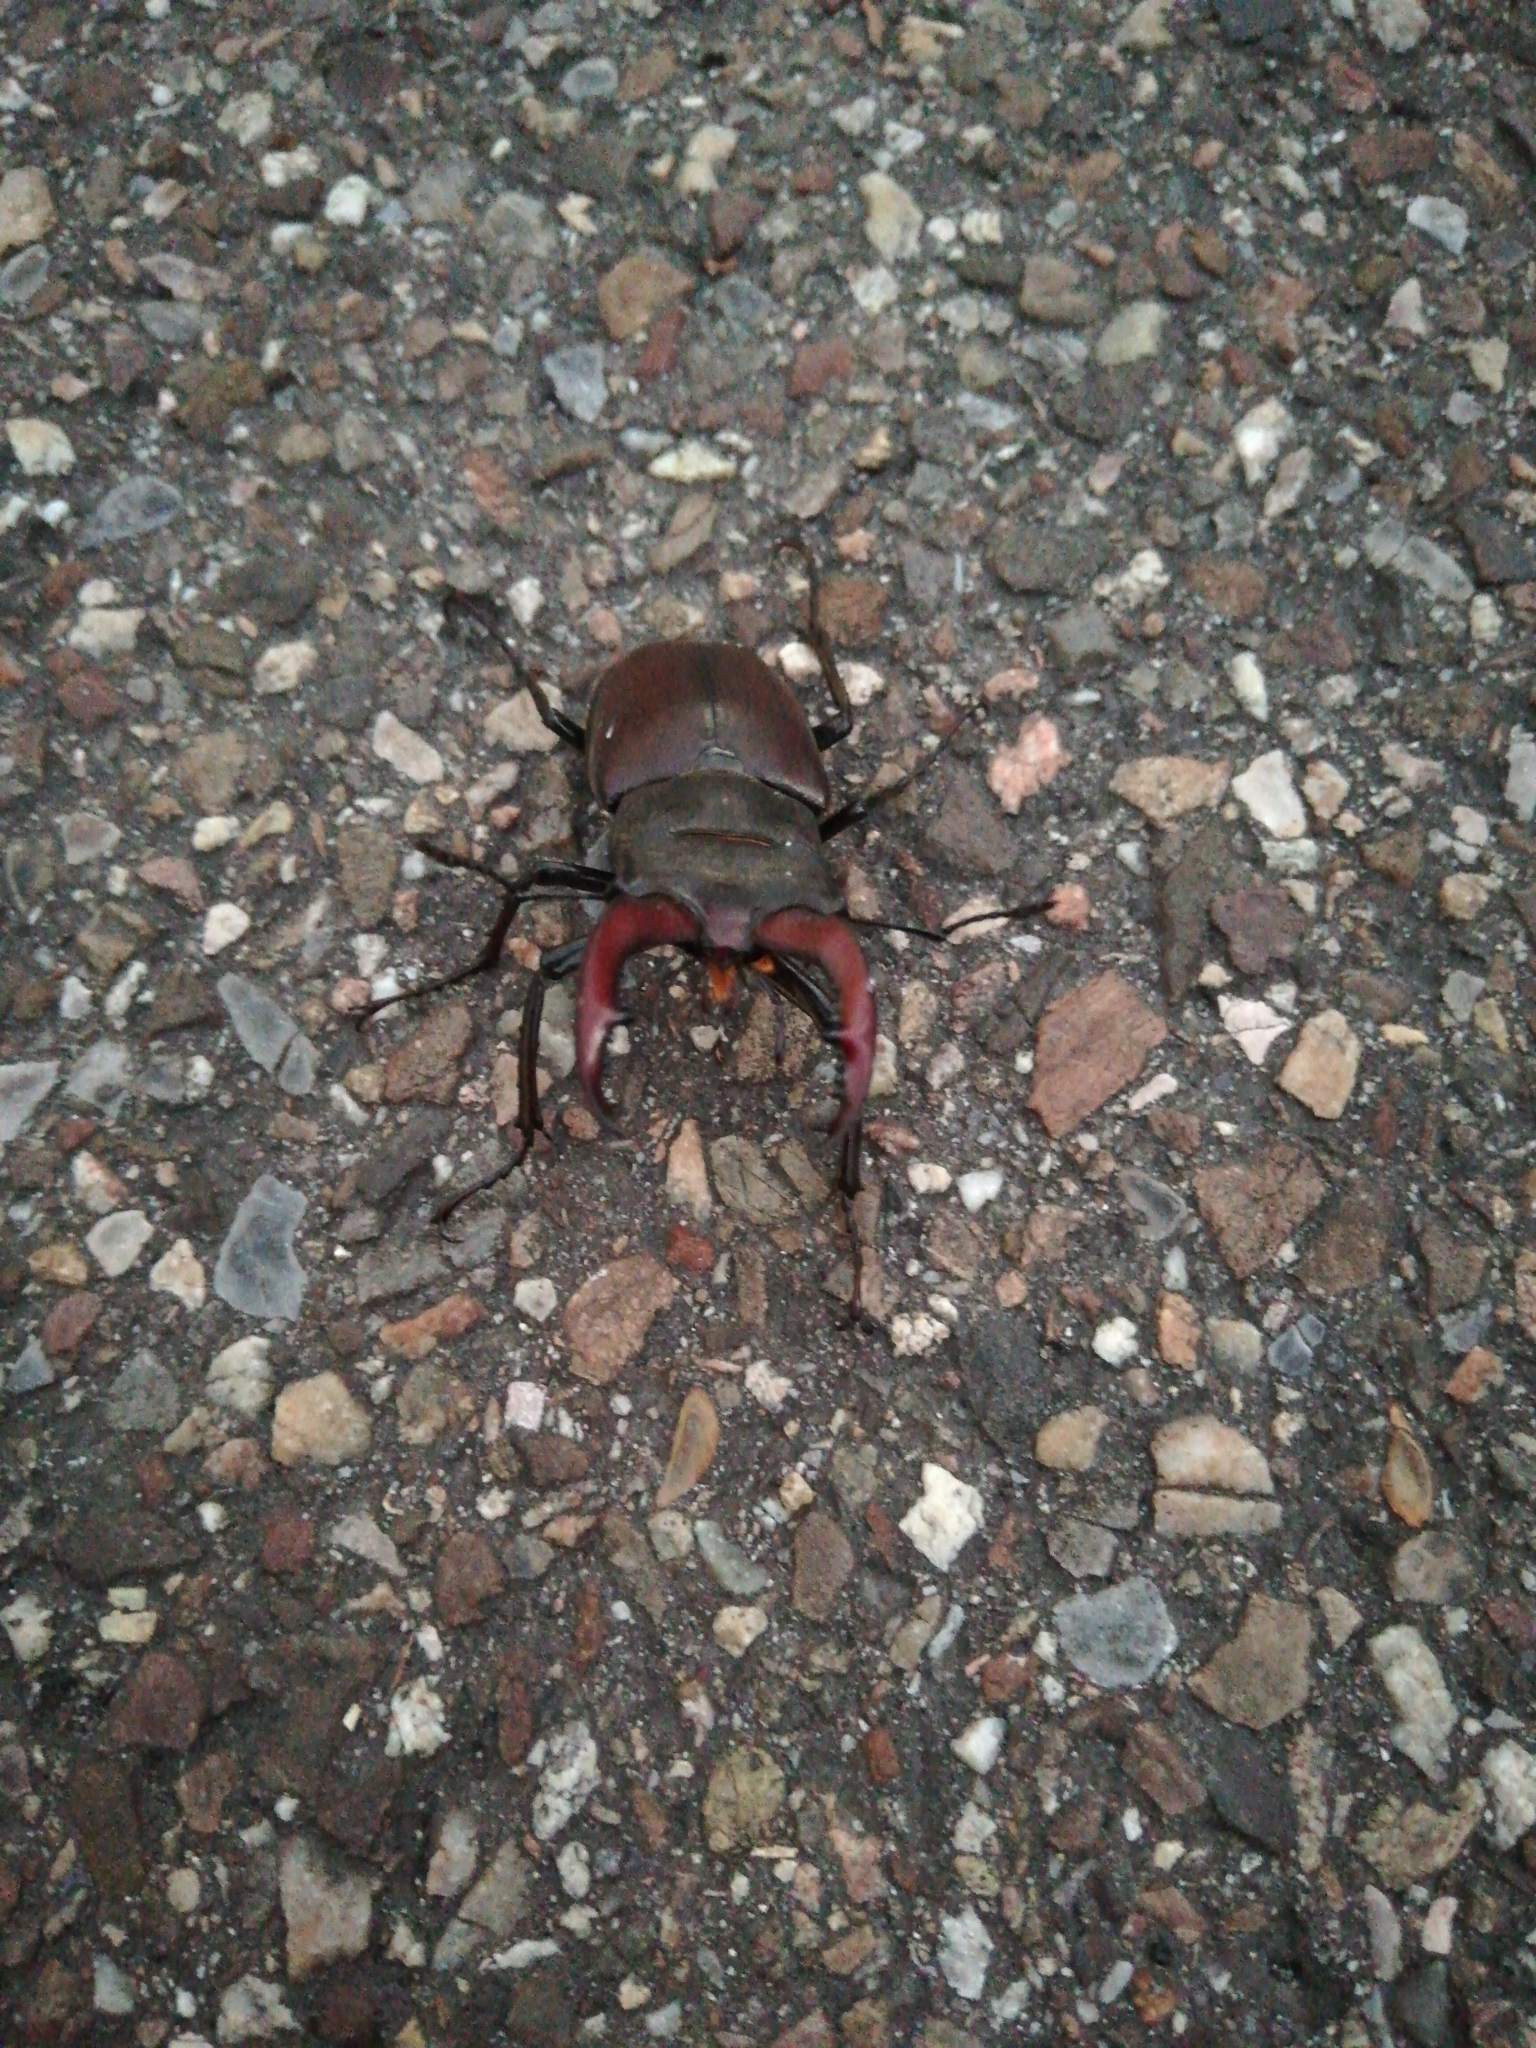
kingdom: Animalia
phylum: Arthropoda
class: Insecta
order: Coleoptera
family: Lucanidae
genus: Lucanus
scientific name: Lucanus cervus
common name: Stag beetle
